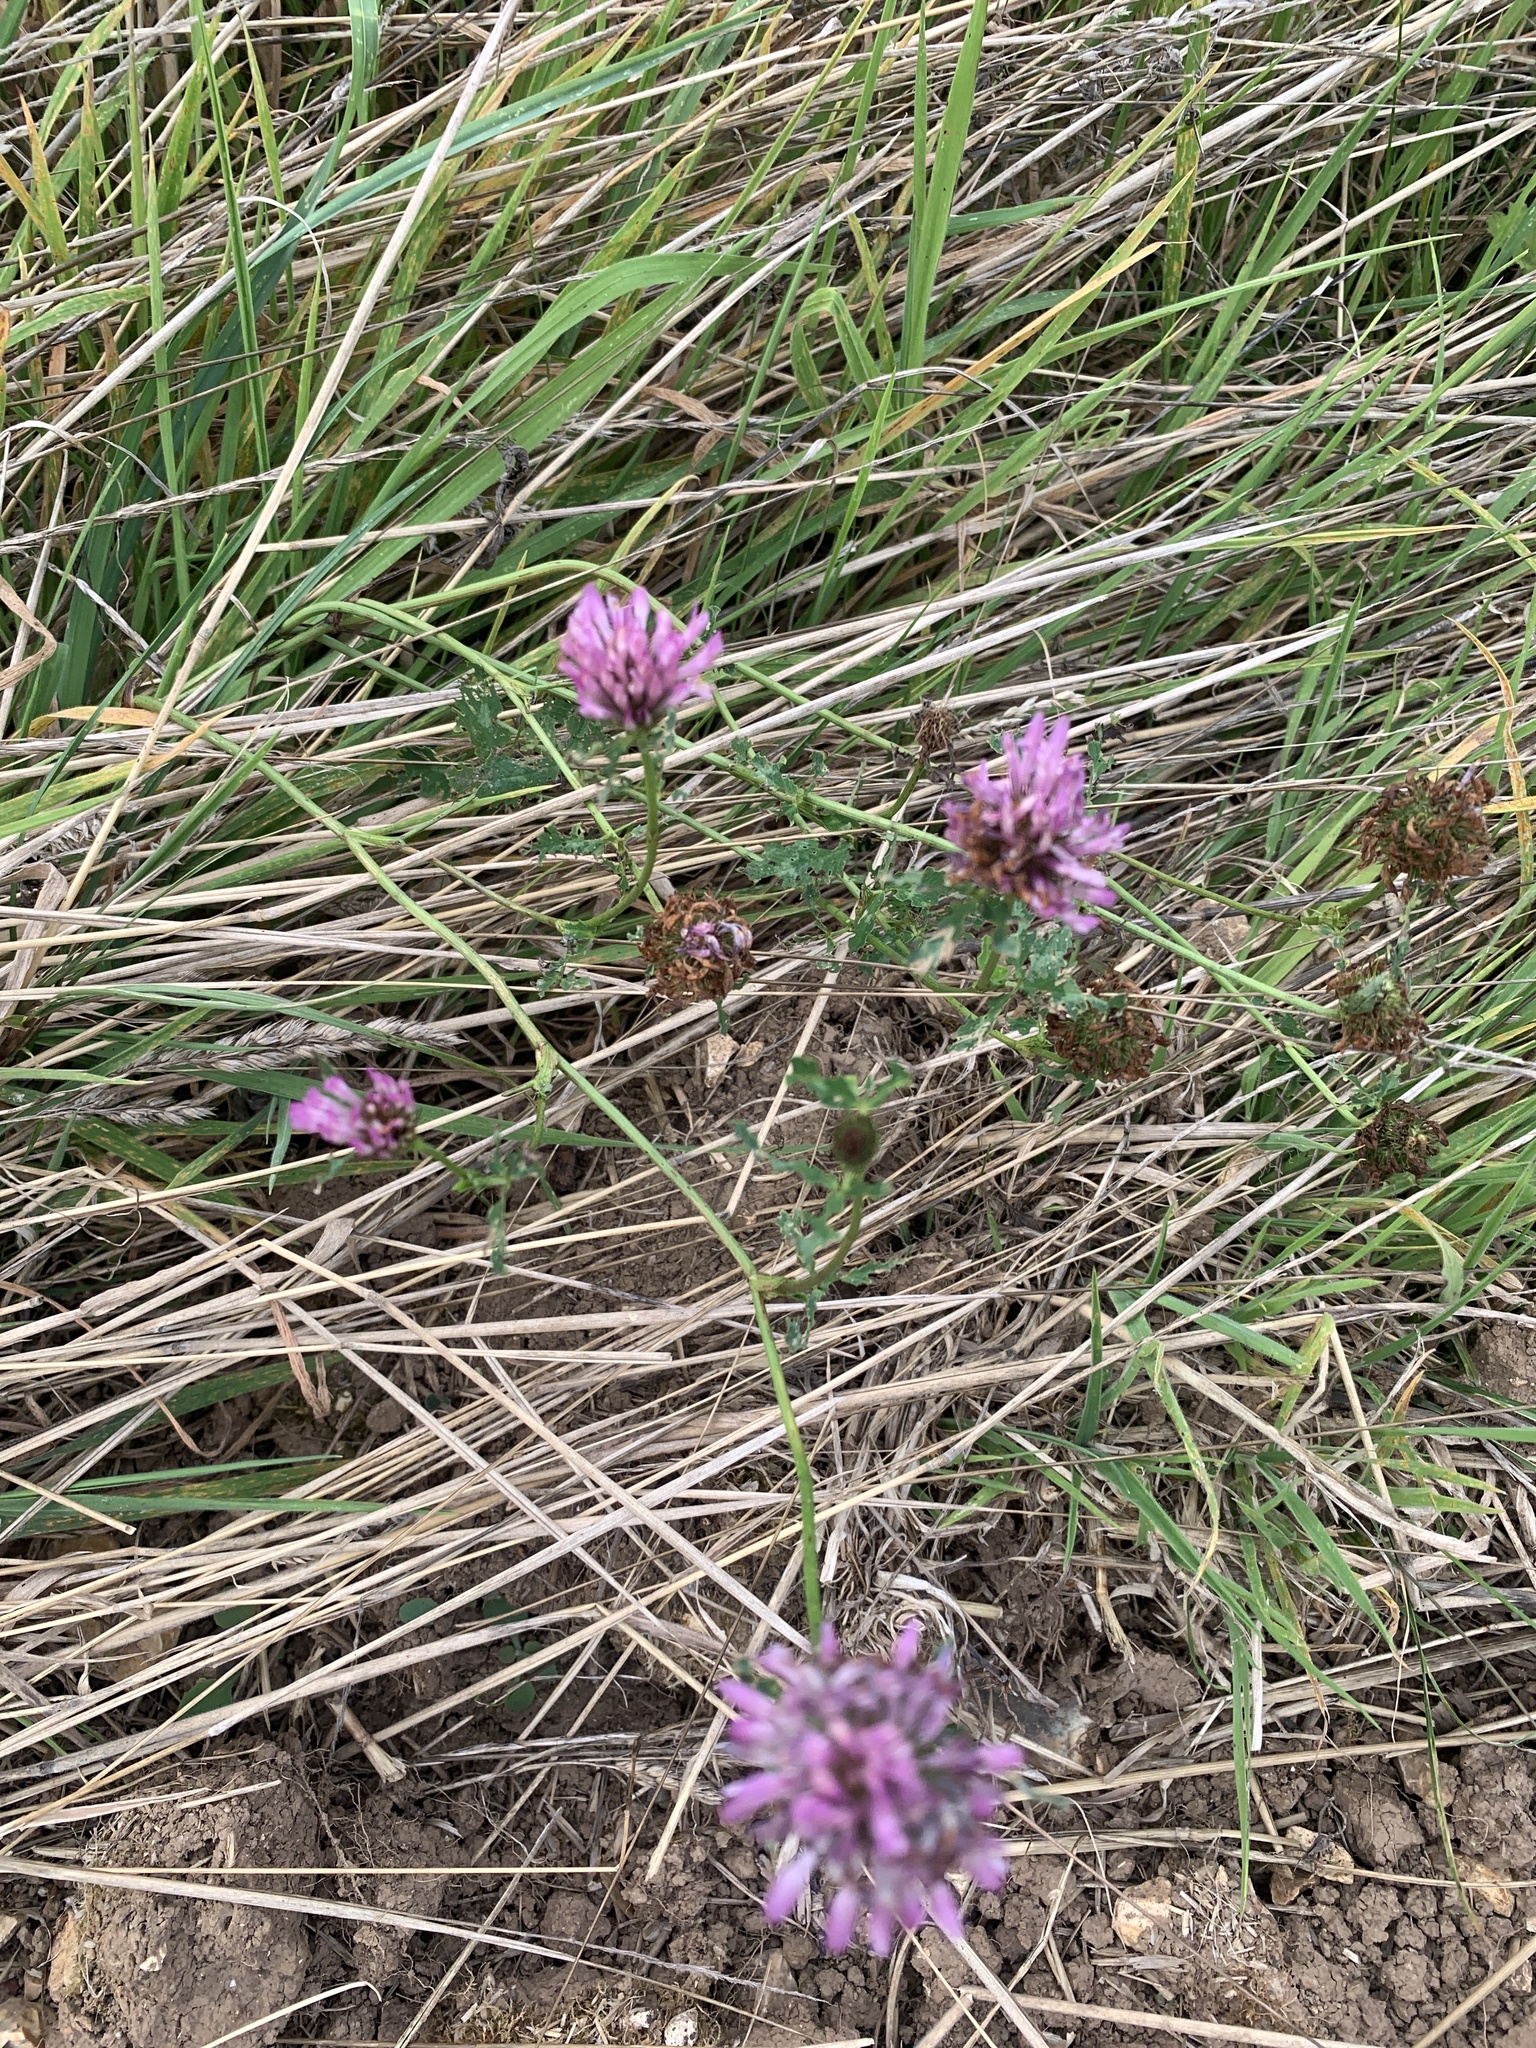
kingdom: Plantae
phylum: Tracheophyta
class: Magnoliopsida
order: Fabales
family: Fabaceae
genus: Trifolium
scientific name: Trifolium pratense
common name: Red clover
